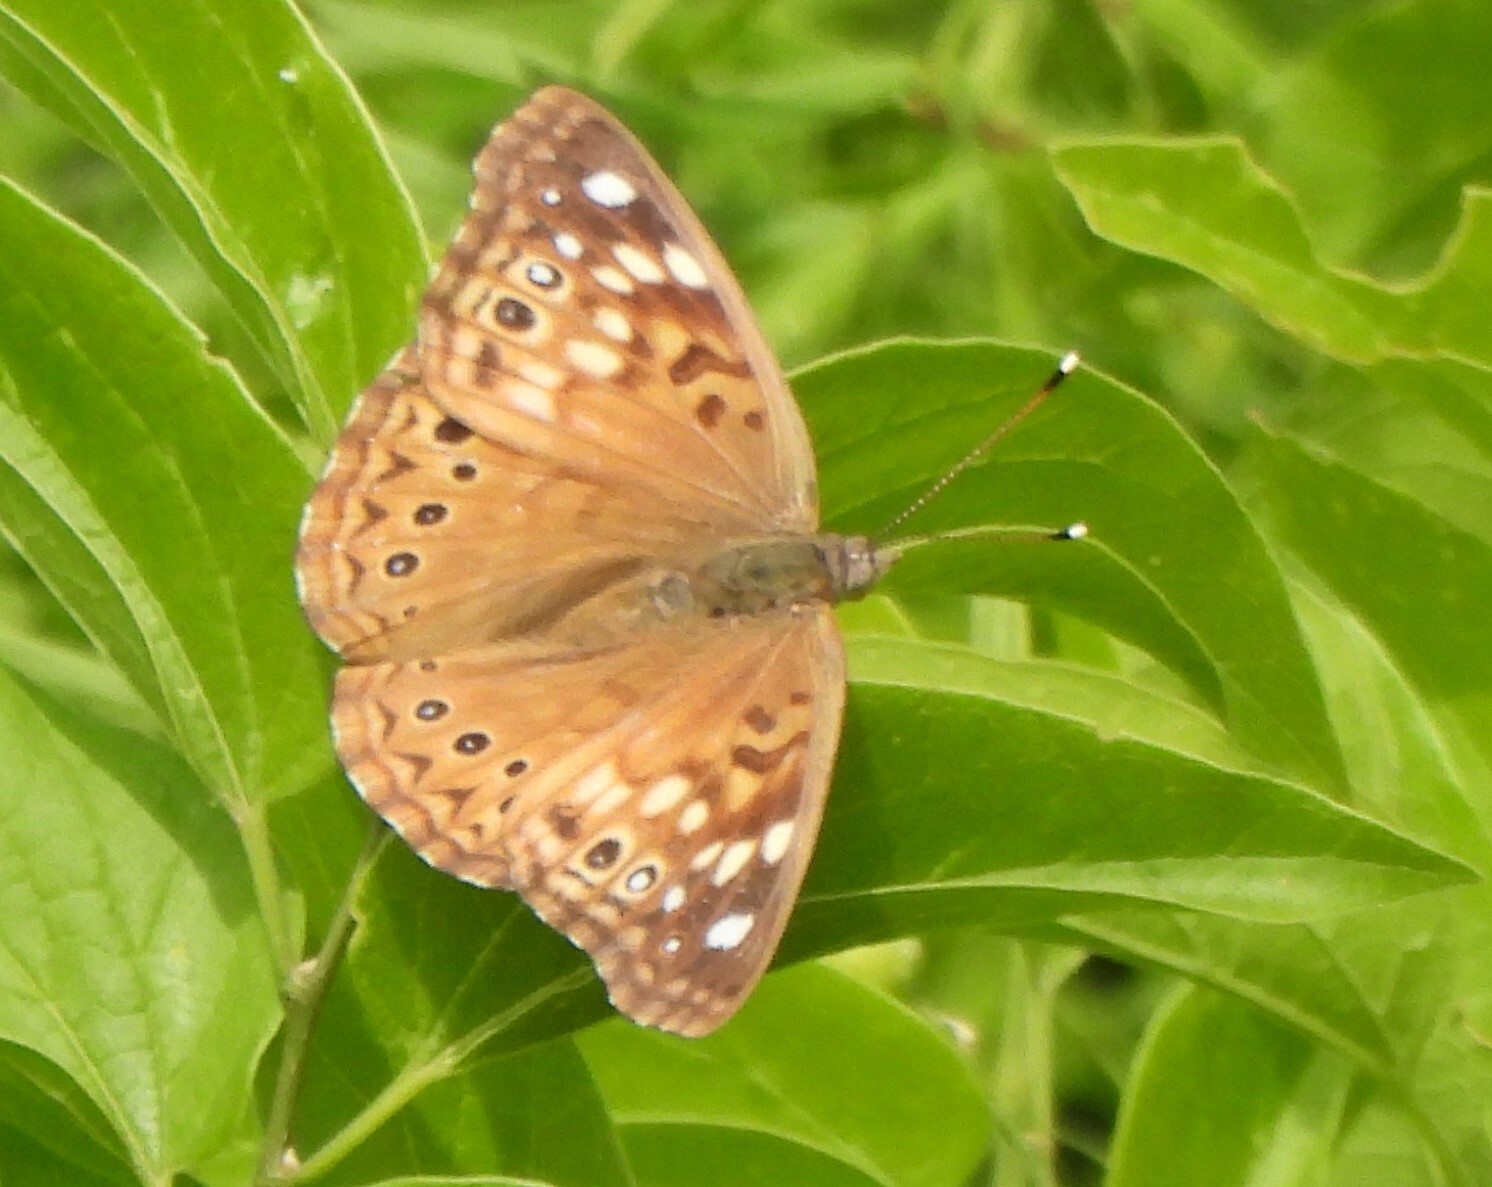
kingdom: Animalia
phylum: Arthropoda
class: Insecta
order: Lepidoptera
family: Nymphalidae
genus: Asterocampa
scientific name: Asterocampa celtis
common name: Hackberry emperor
